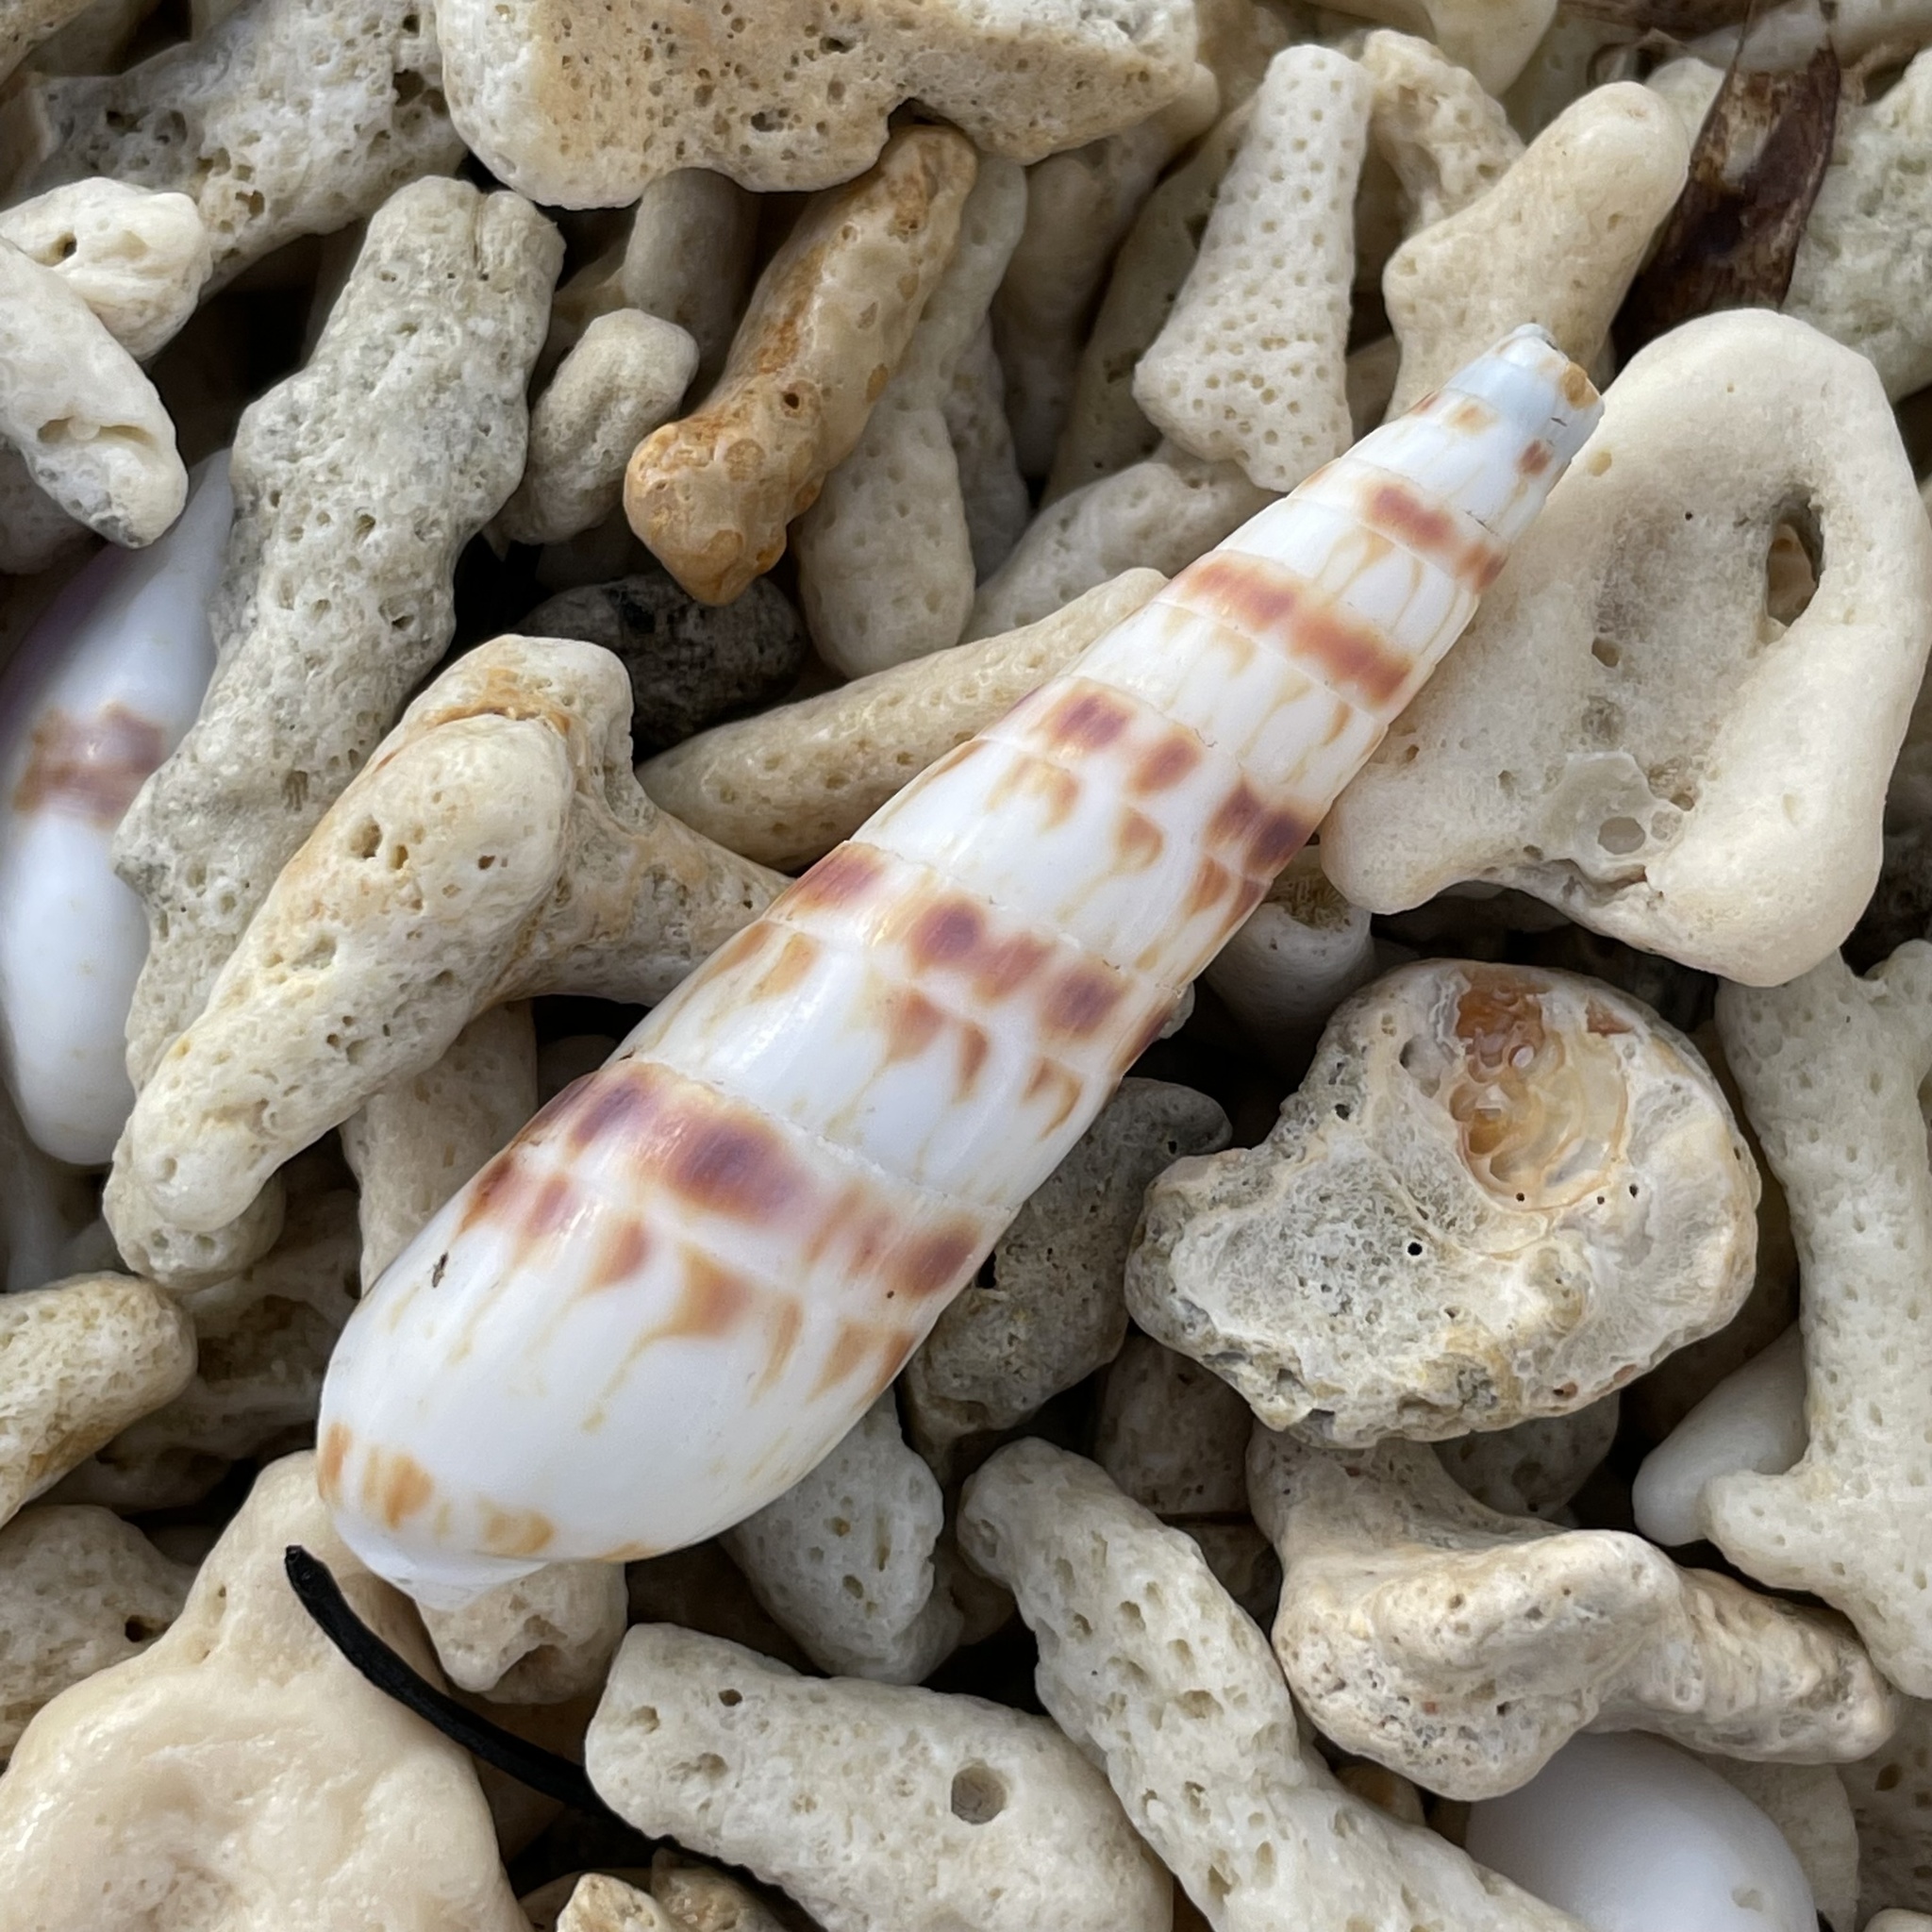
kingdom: Animalia
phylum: Mollusca
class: Gastropoda
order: Neogastropoda
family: Terebridae
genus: Oxymeris
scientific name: Oxymeris chlorata
